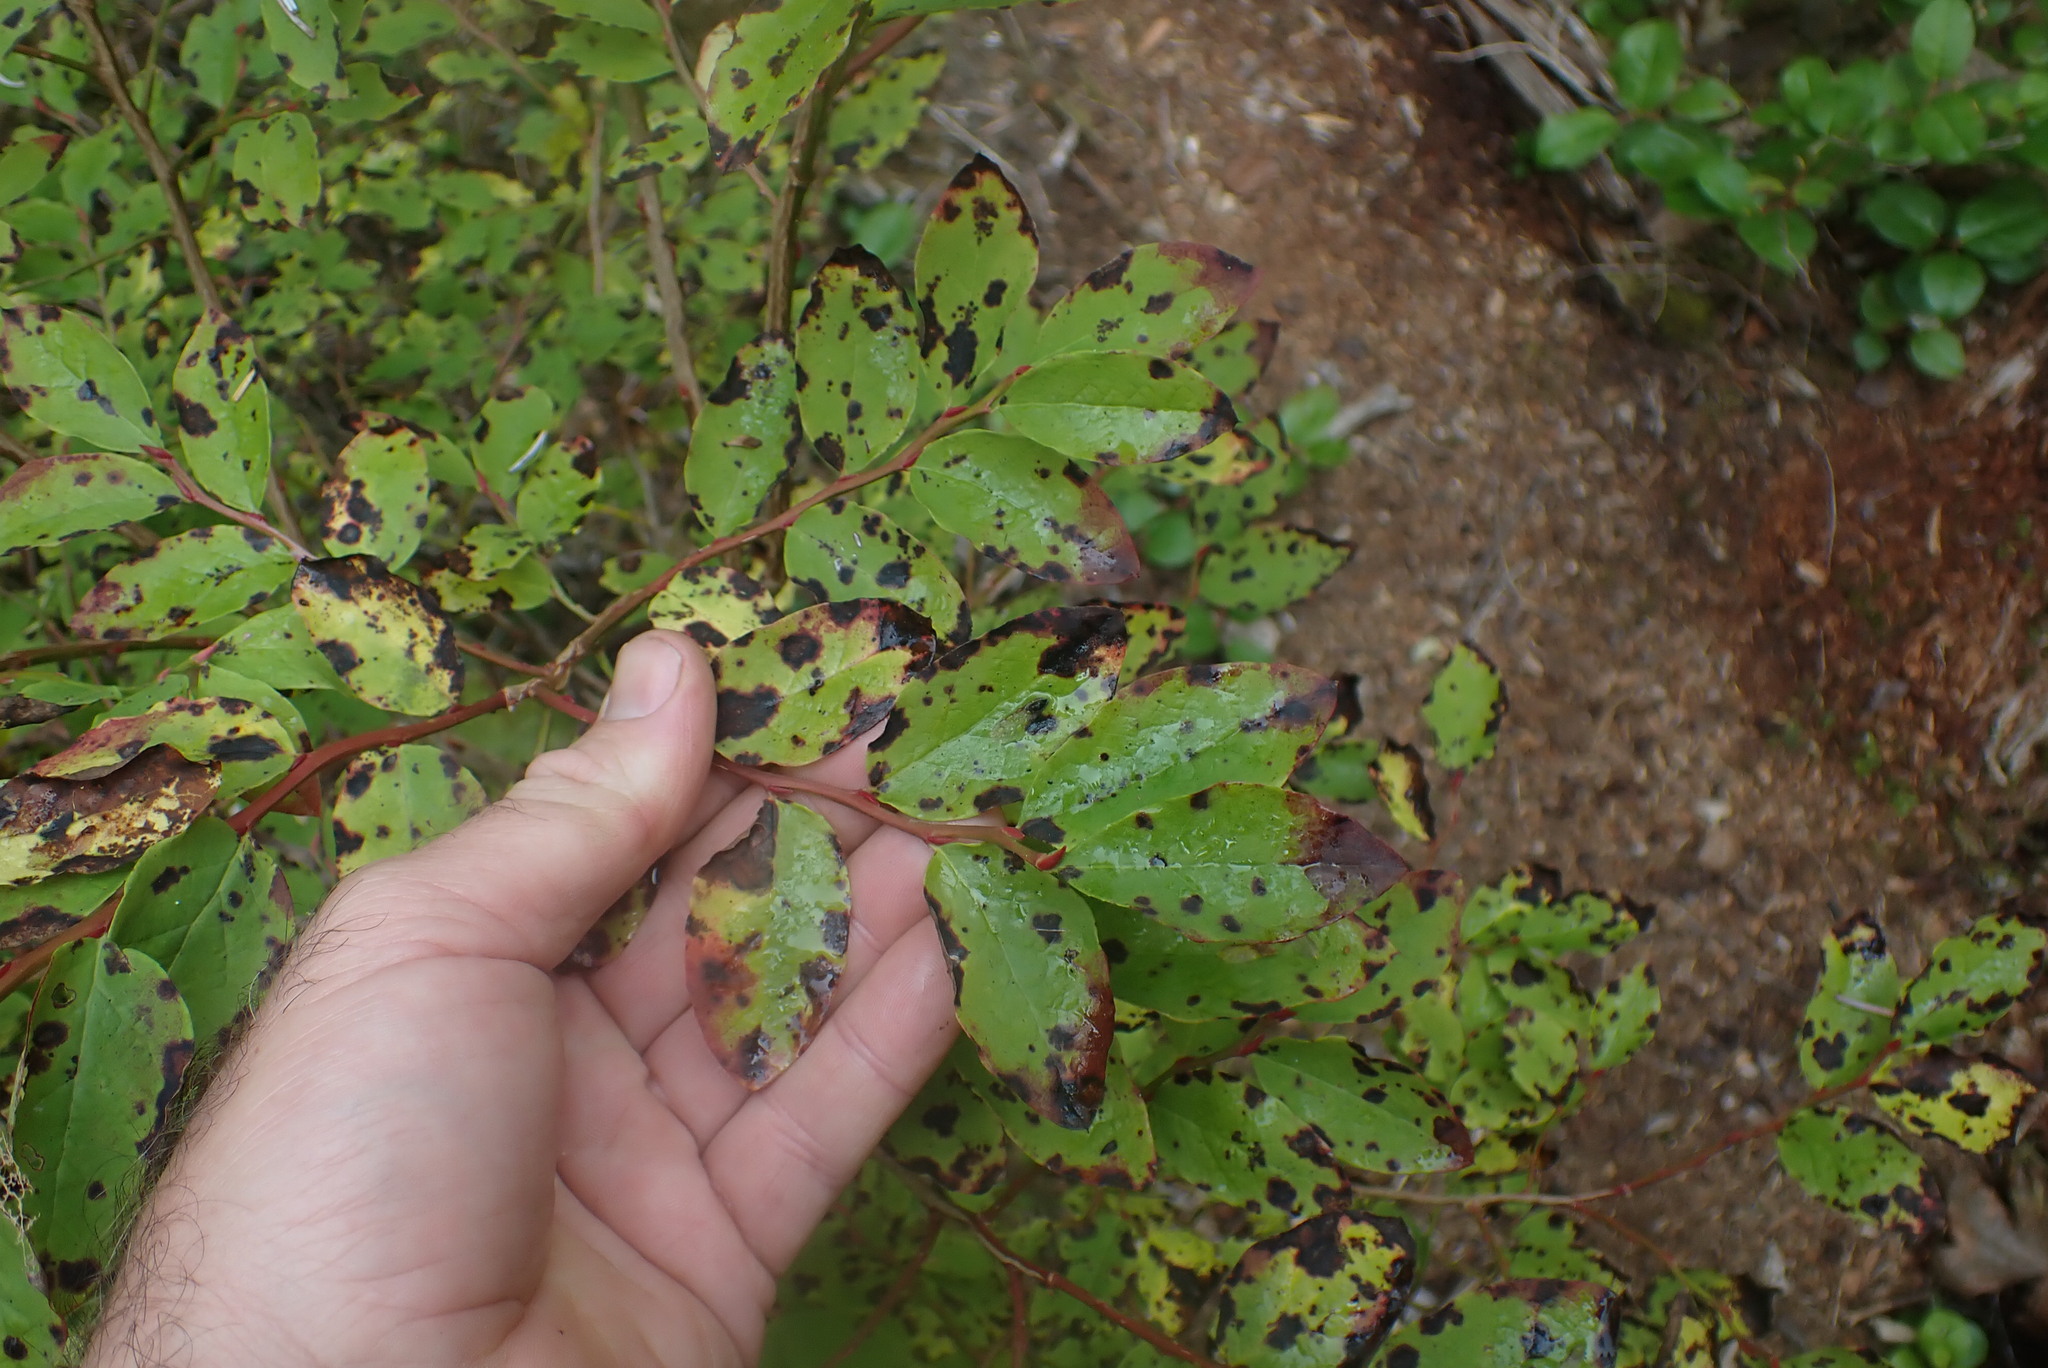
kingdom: Plantae
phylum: Tracheophyta
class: Magnoliopsida
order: Ericales
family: Ericaceae
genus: Vaccinium
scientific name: Vaccinium ovalifolium
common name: Early blueberry
